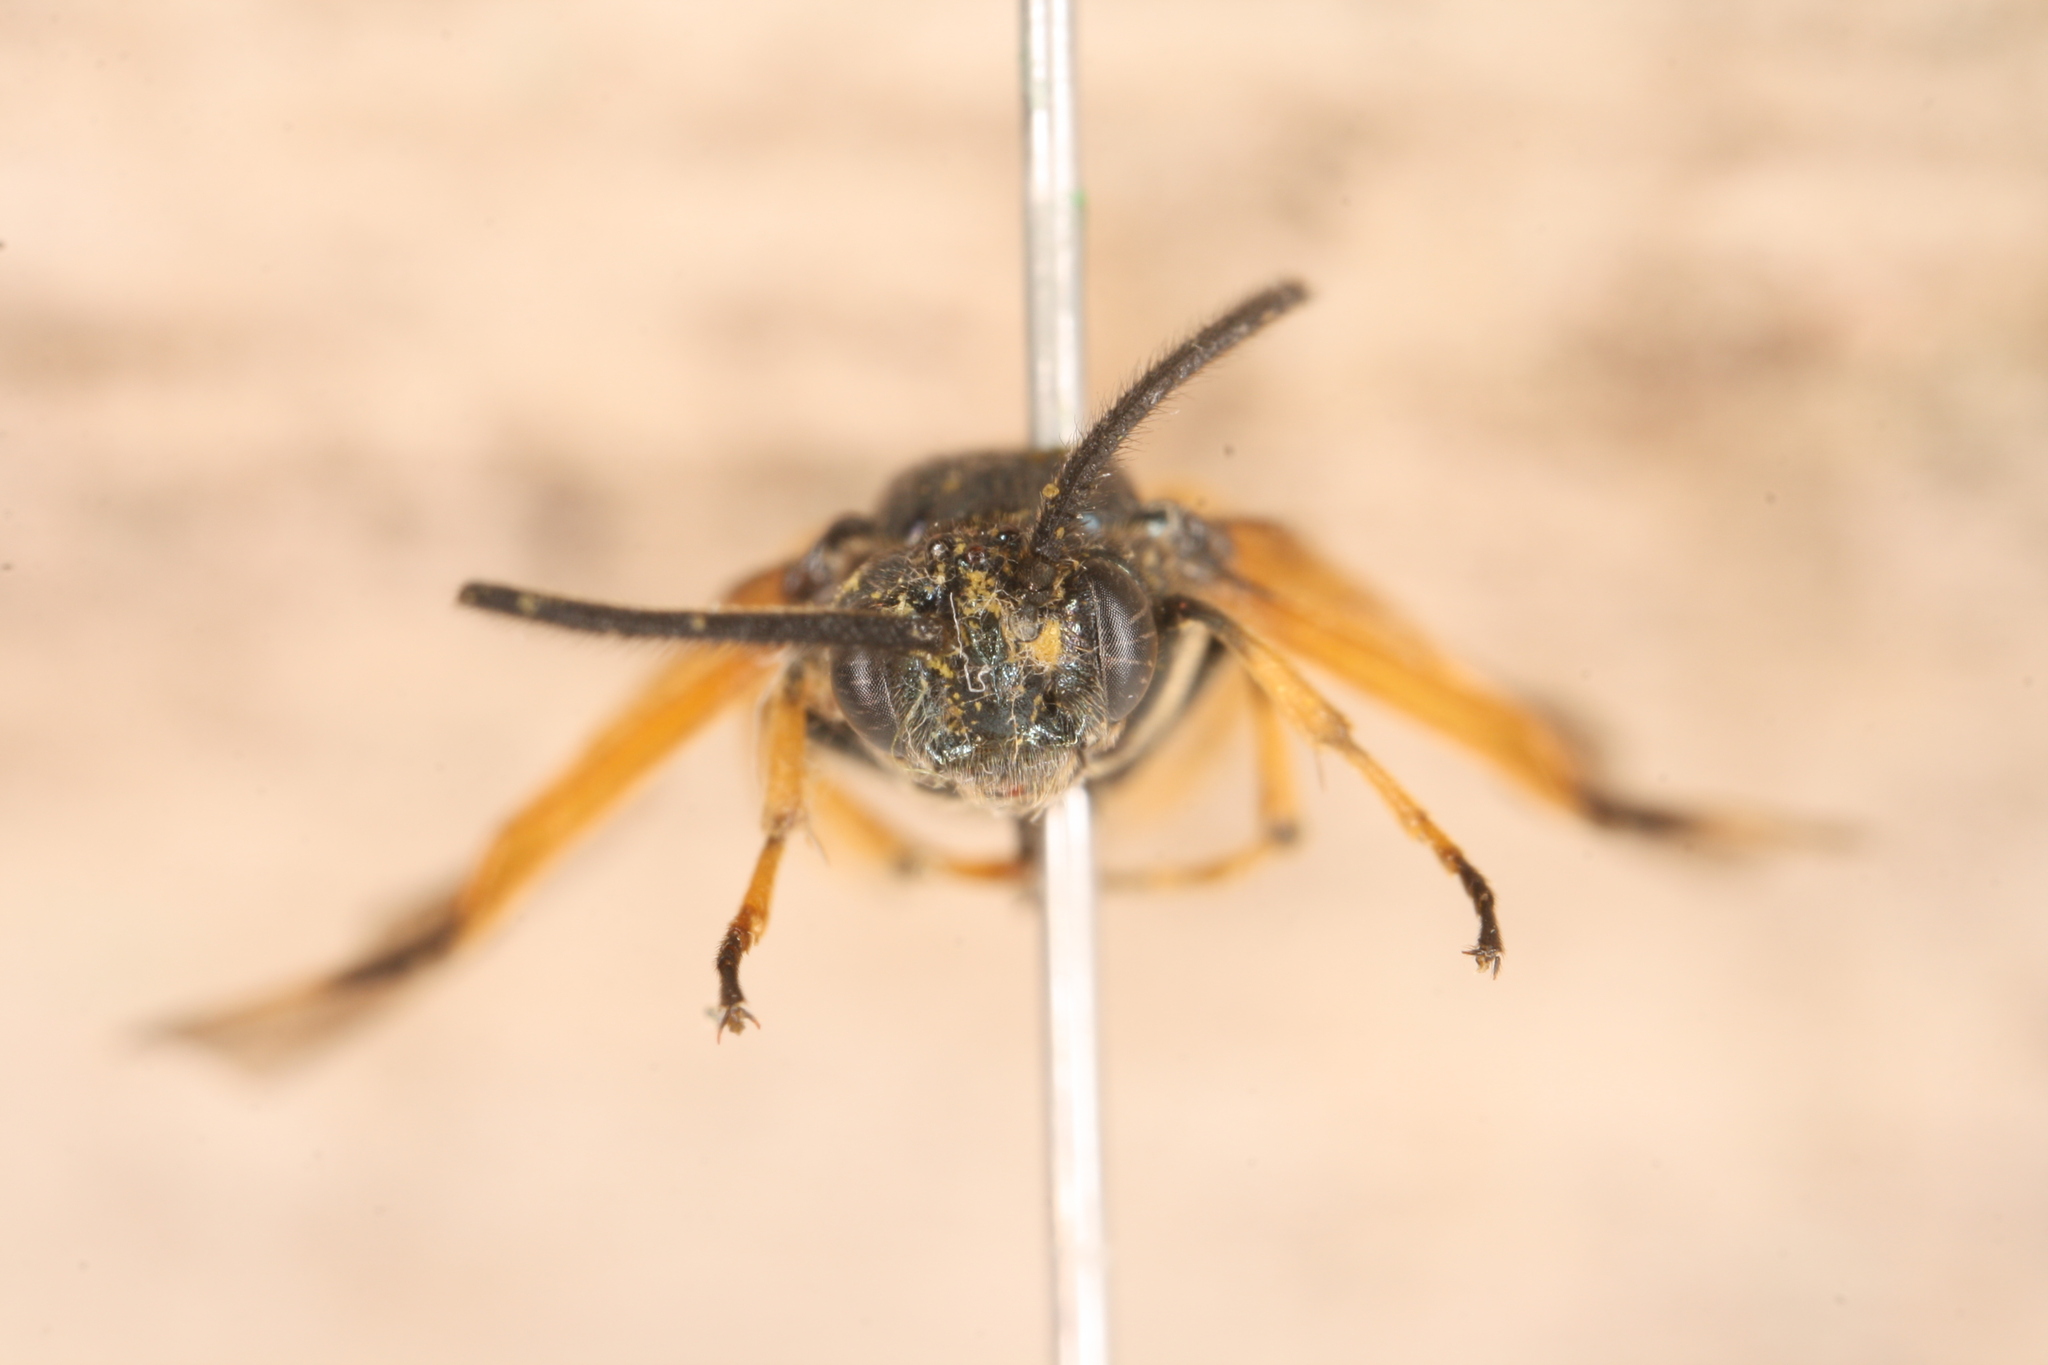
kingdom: Animalia
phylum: Arthropoda
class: Insecta
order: Hymenoptera
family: Argidae
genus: Arge
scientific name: Arge cyanocrocea
